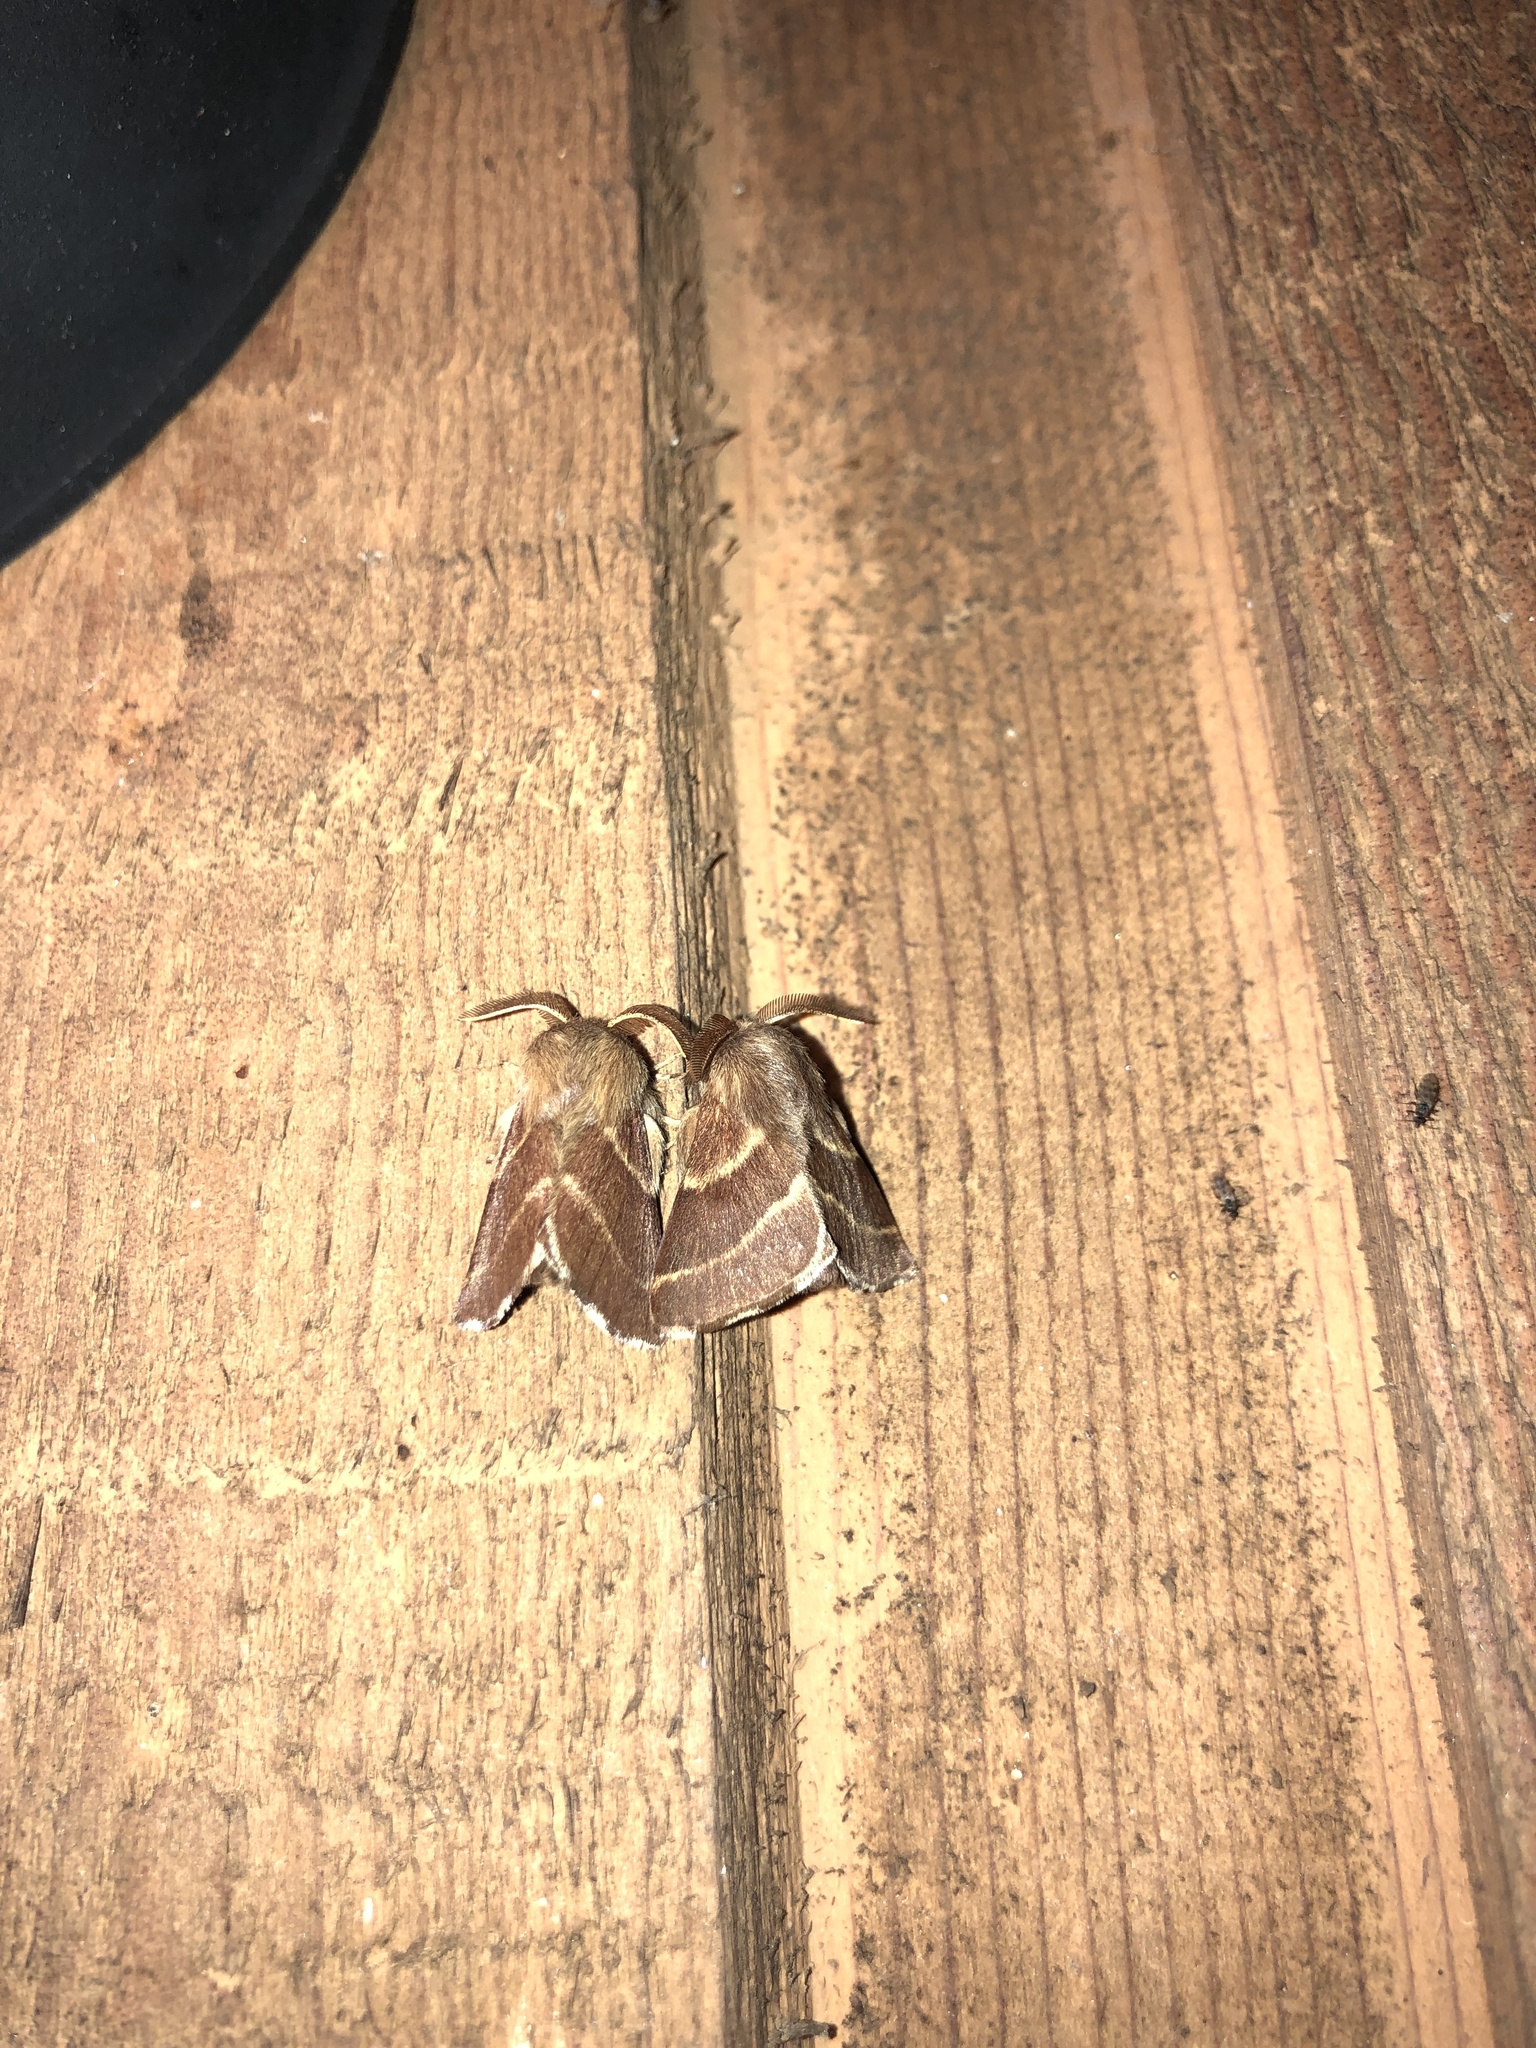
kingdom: Animalia
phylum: Arthropoda
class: Insecta
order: Lepidoptera
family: Lasiocampidae
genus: Malacosoma
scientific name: Malacosoma californica
